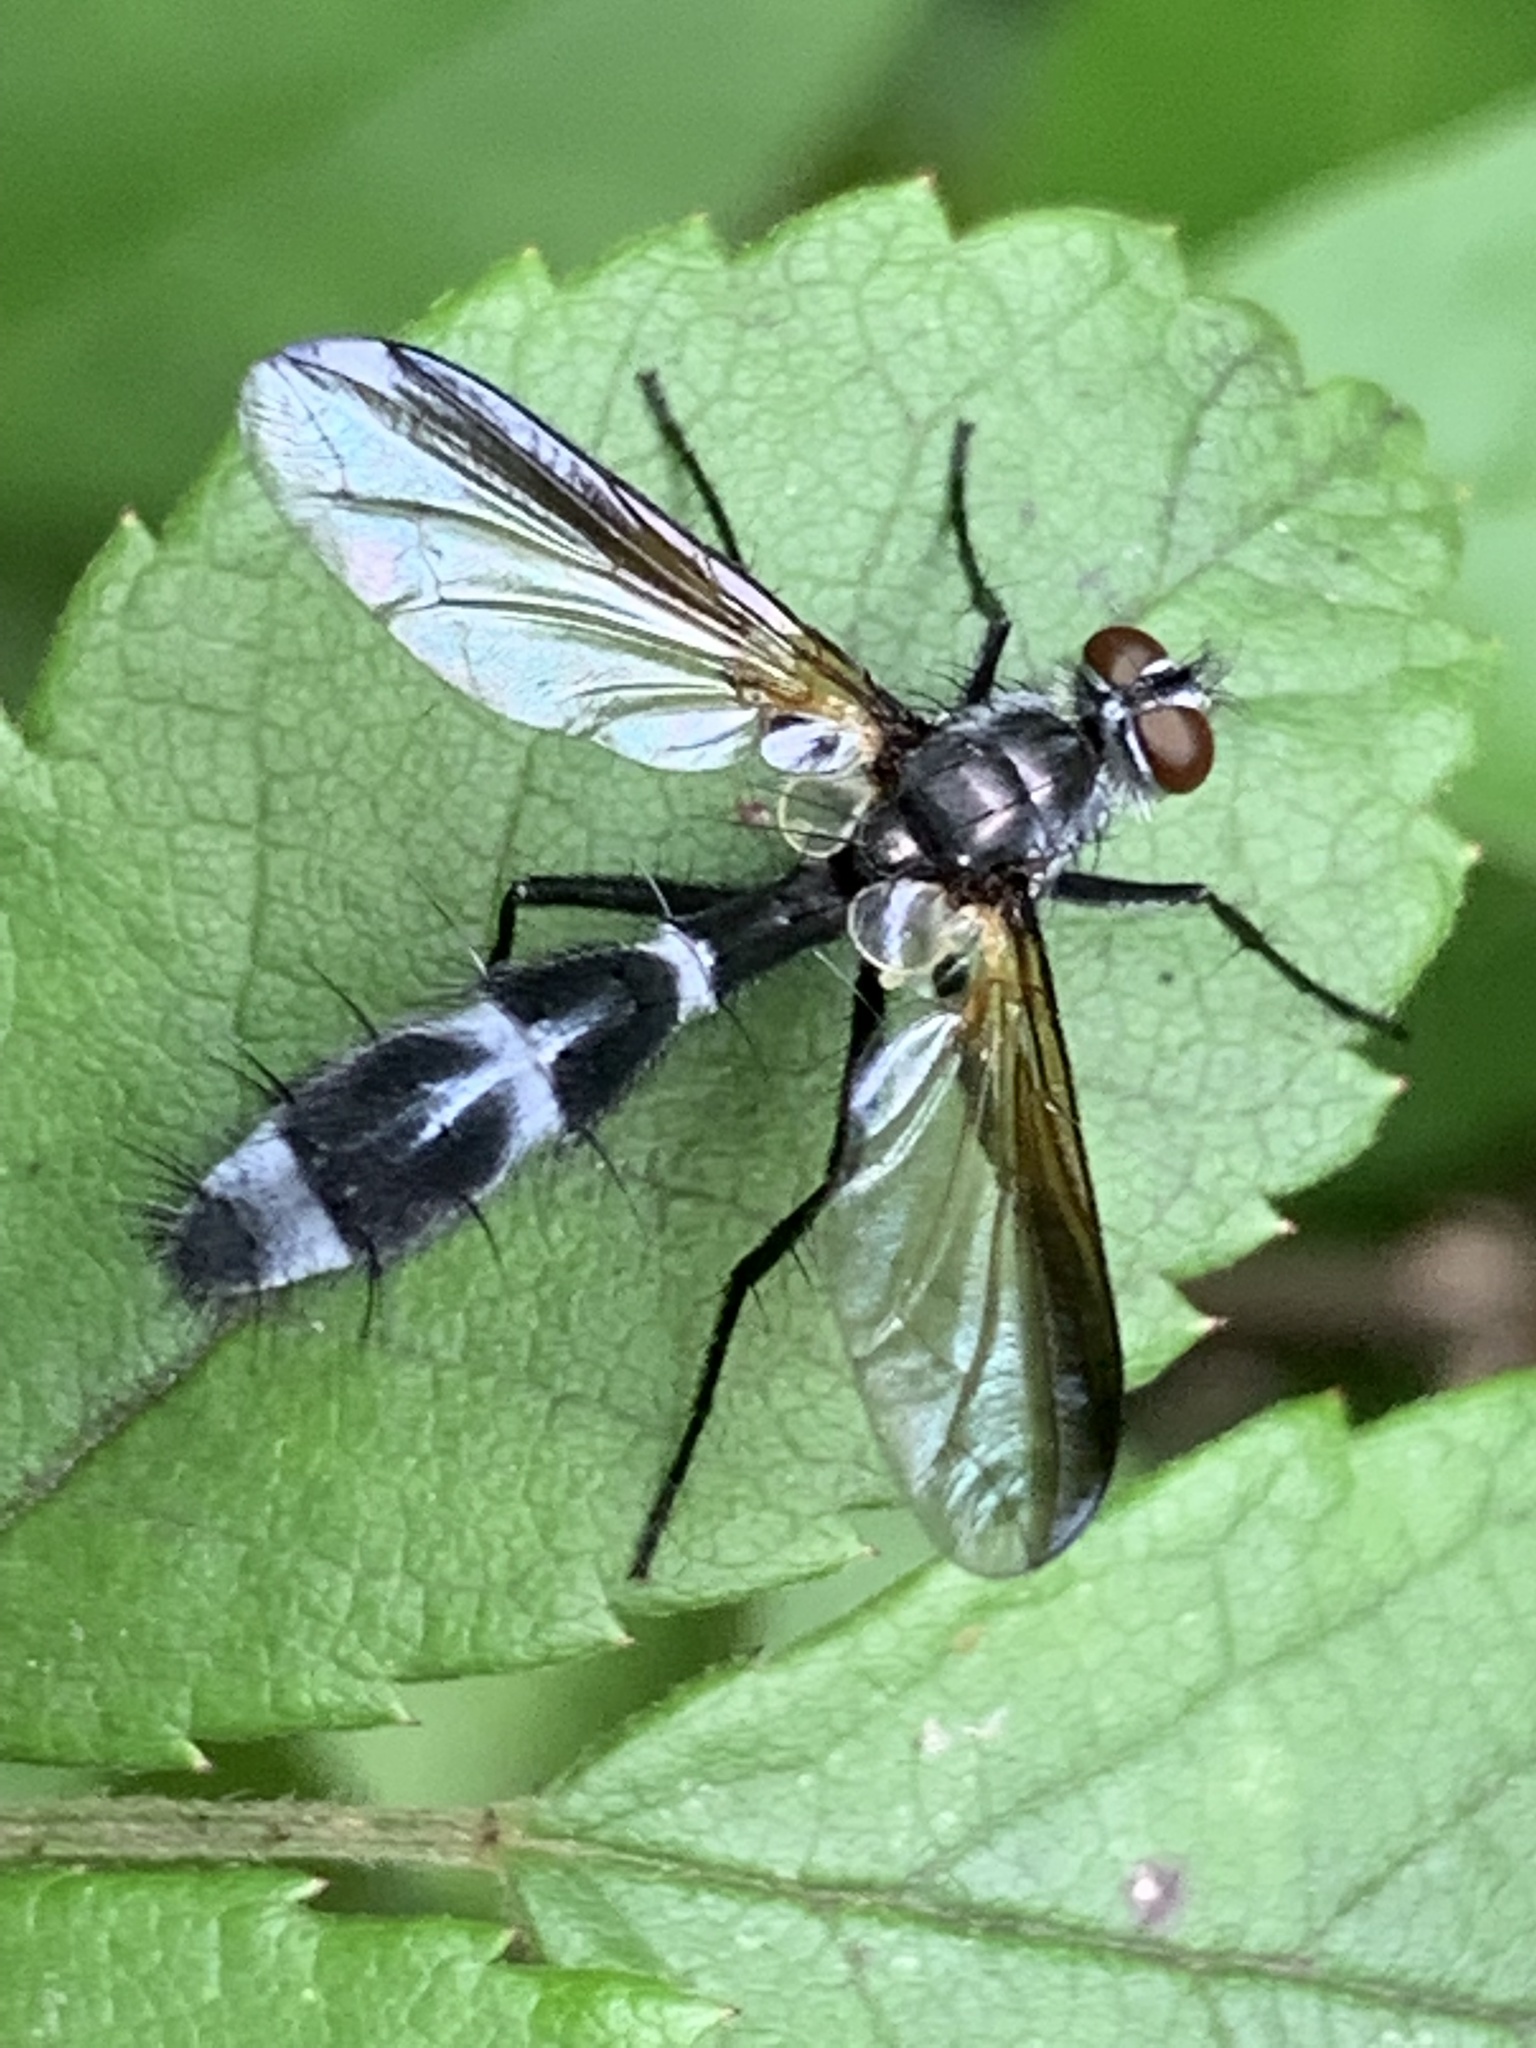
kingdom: Animalia
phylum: Arthropoda
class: Insecta
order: Diptera
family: Tachinidae
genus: Cordyligaster
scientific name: Cordyligaster septentrionalis
